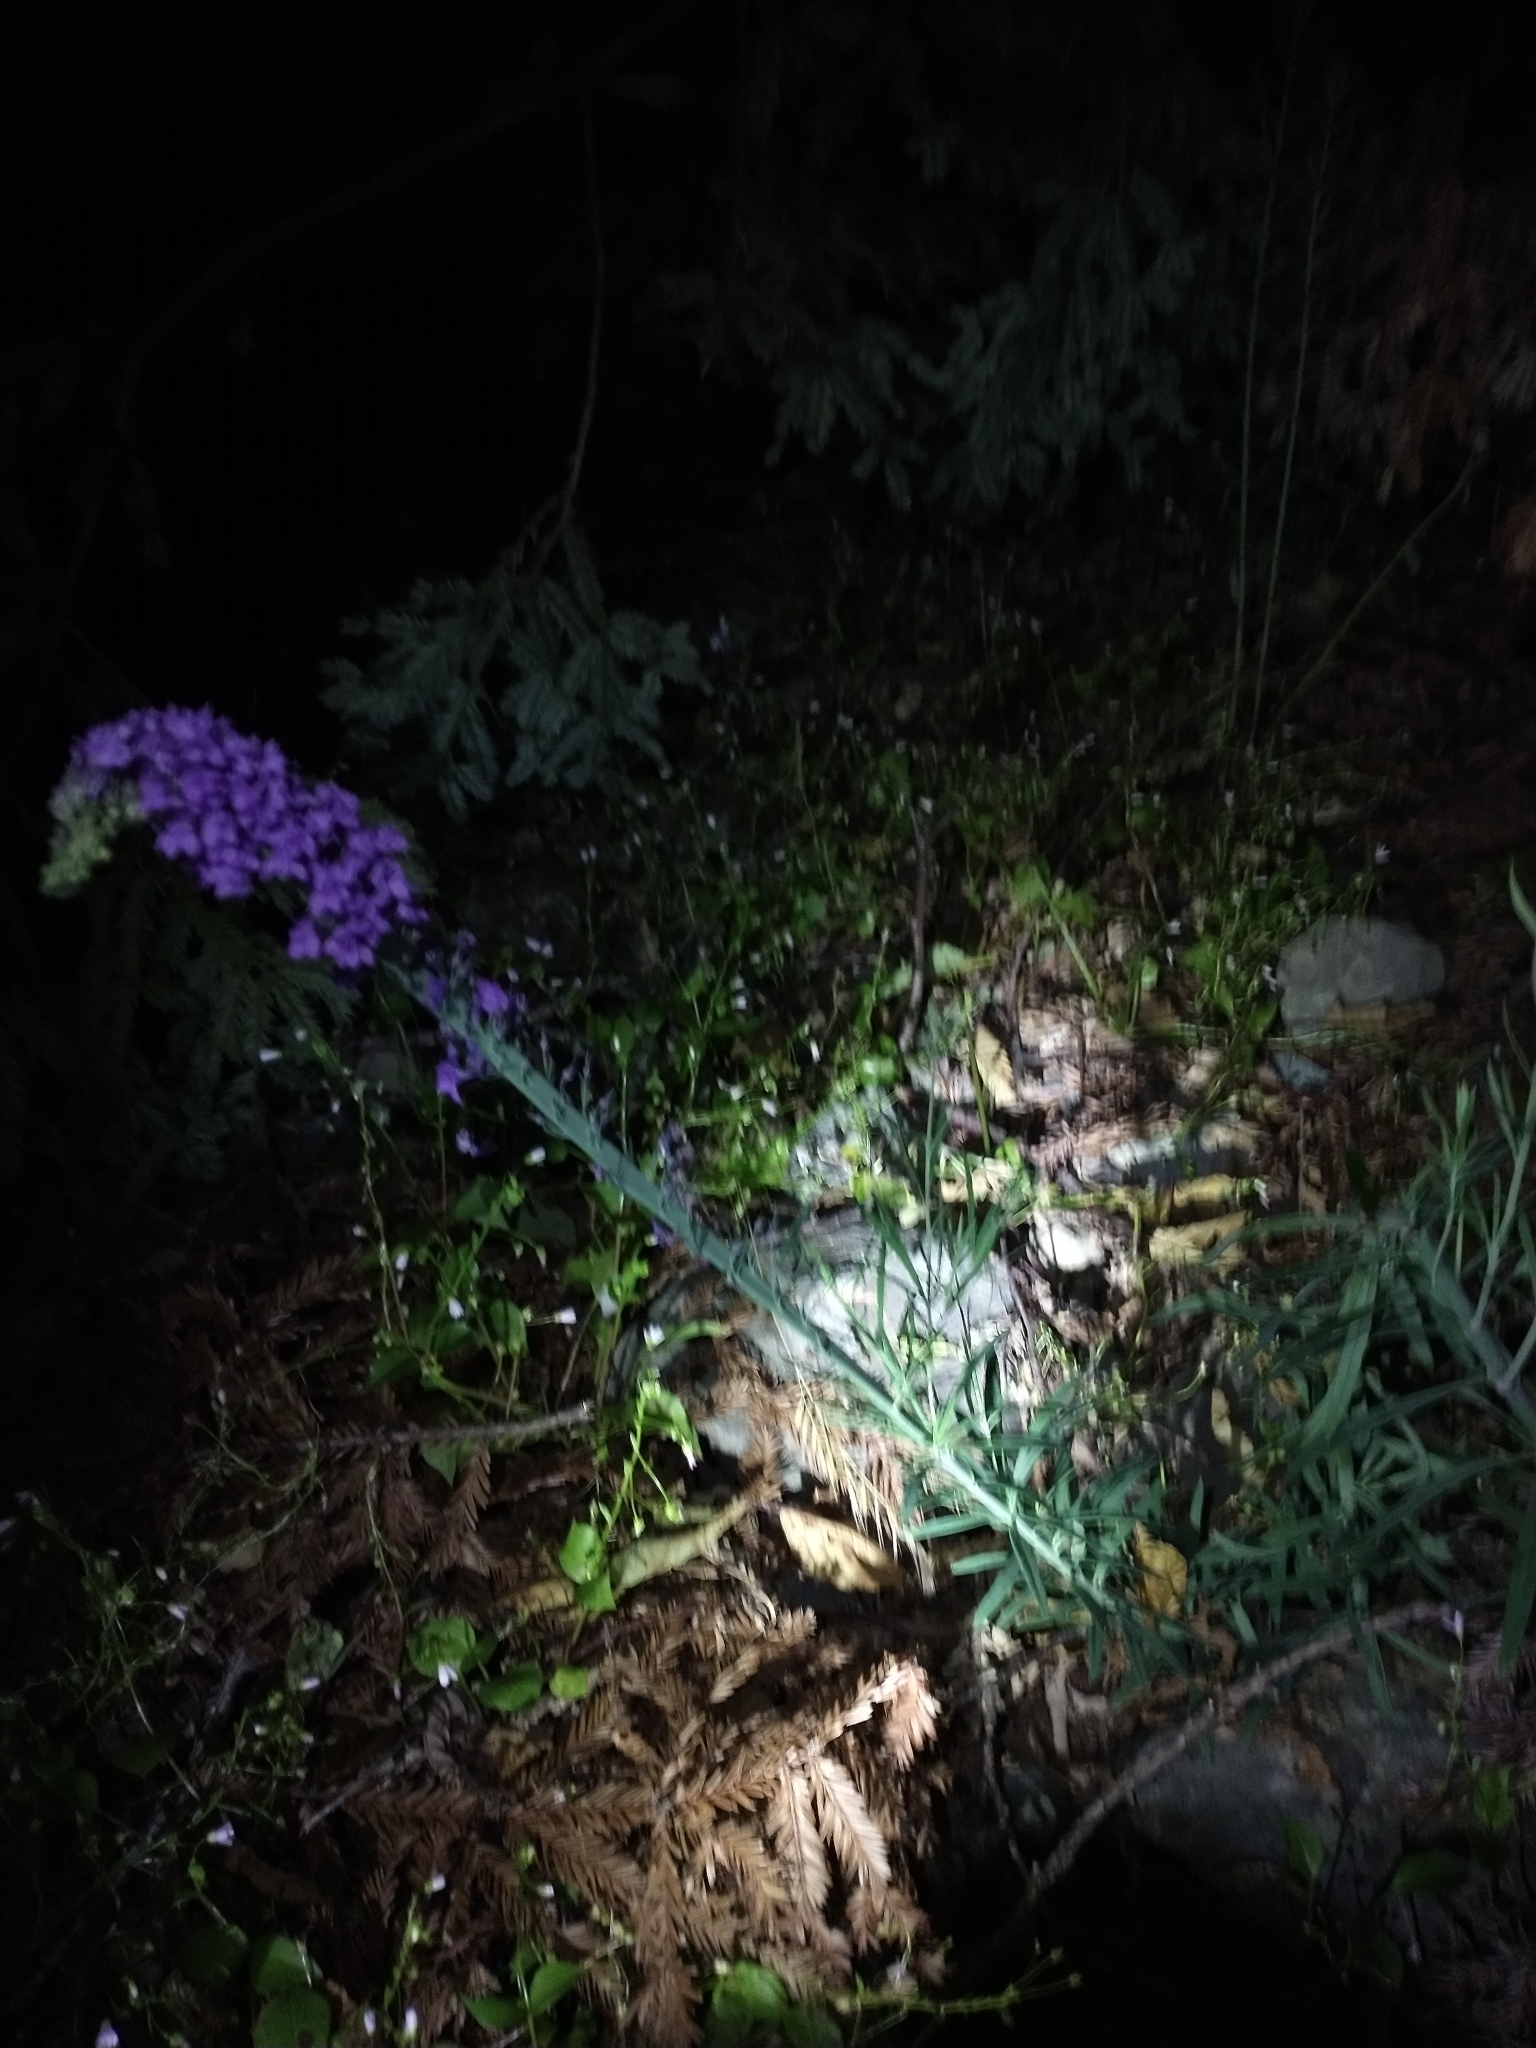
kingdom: Plantae
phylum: Tracheophyta
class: Magnoliopsida
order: Lamiales
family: Plantaginaceae
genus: Linaria
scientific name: Linaria purpurea
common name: Purple toadflax
